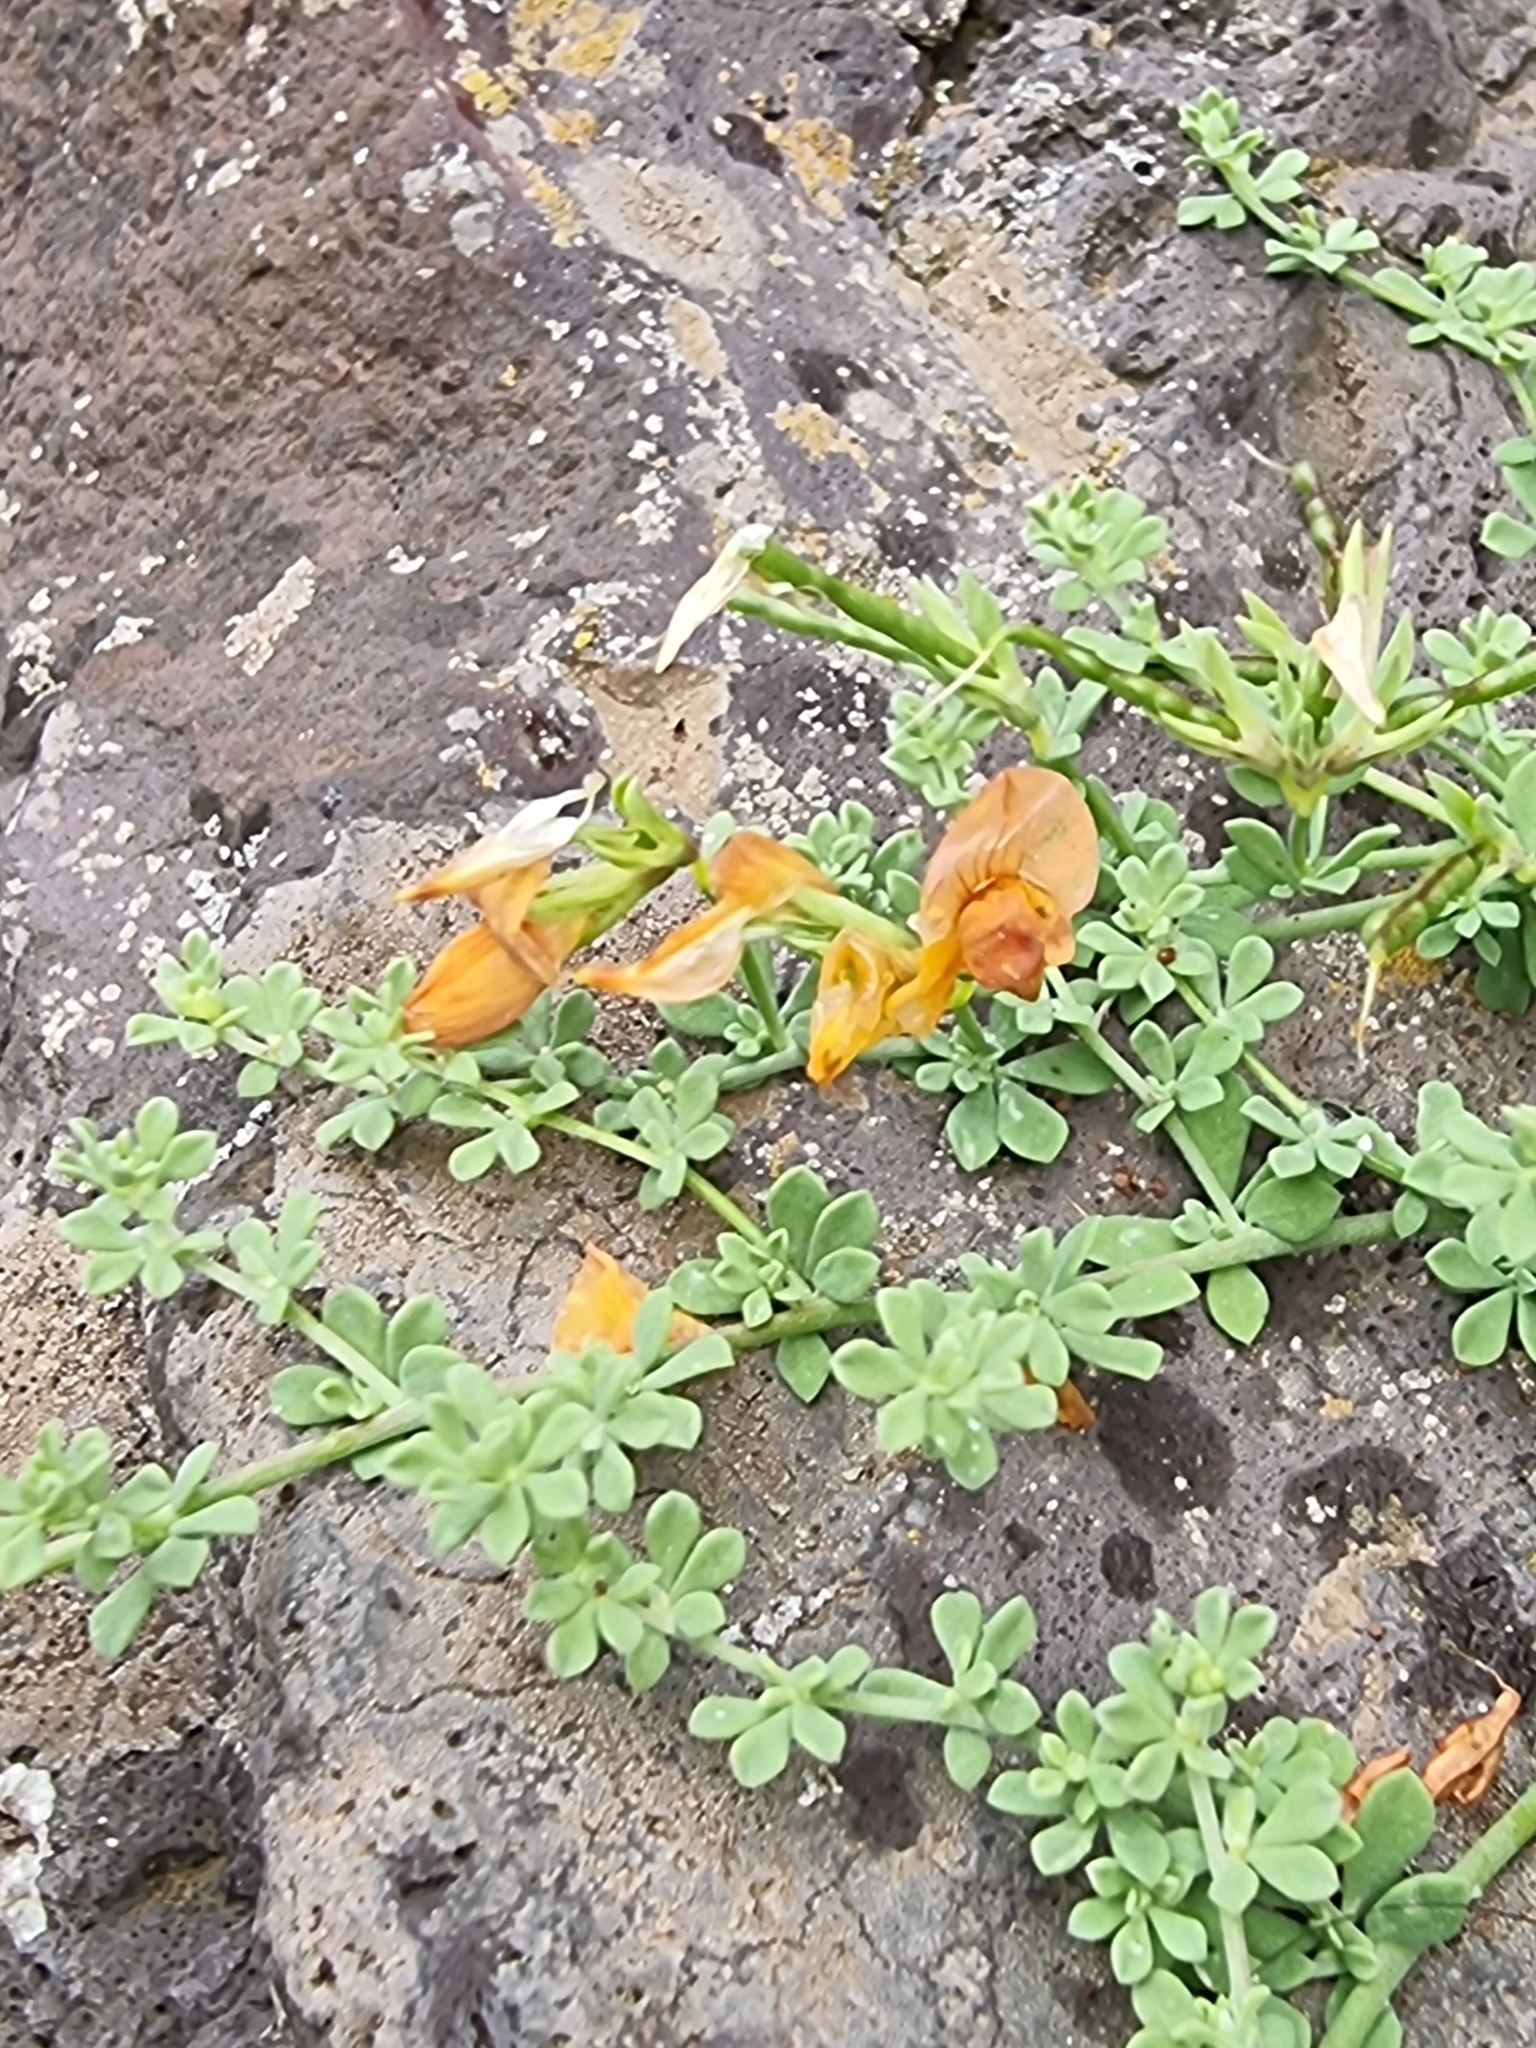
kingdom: Plantae
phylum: Tracheophyta
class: Magnoliopsida
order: Fabales
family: Fabaceae
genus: Lotus
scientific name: Lotus glaucus
